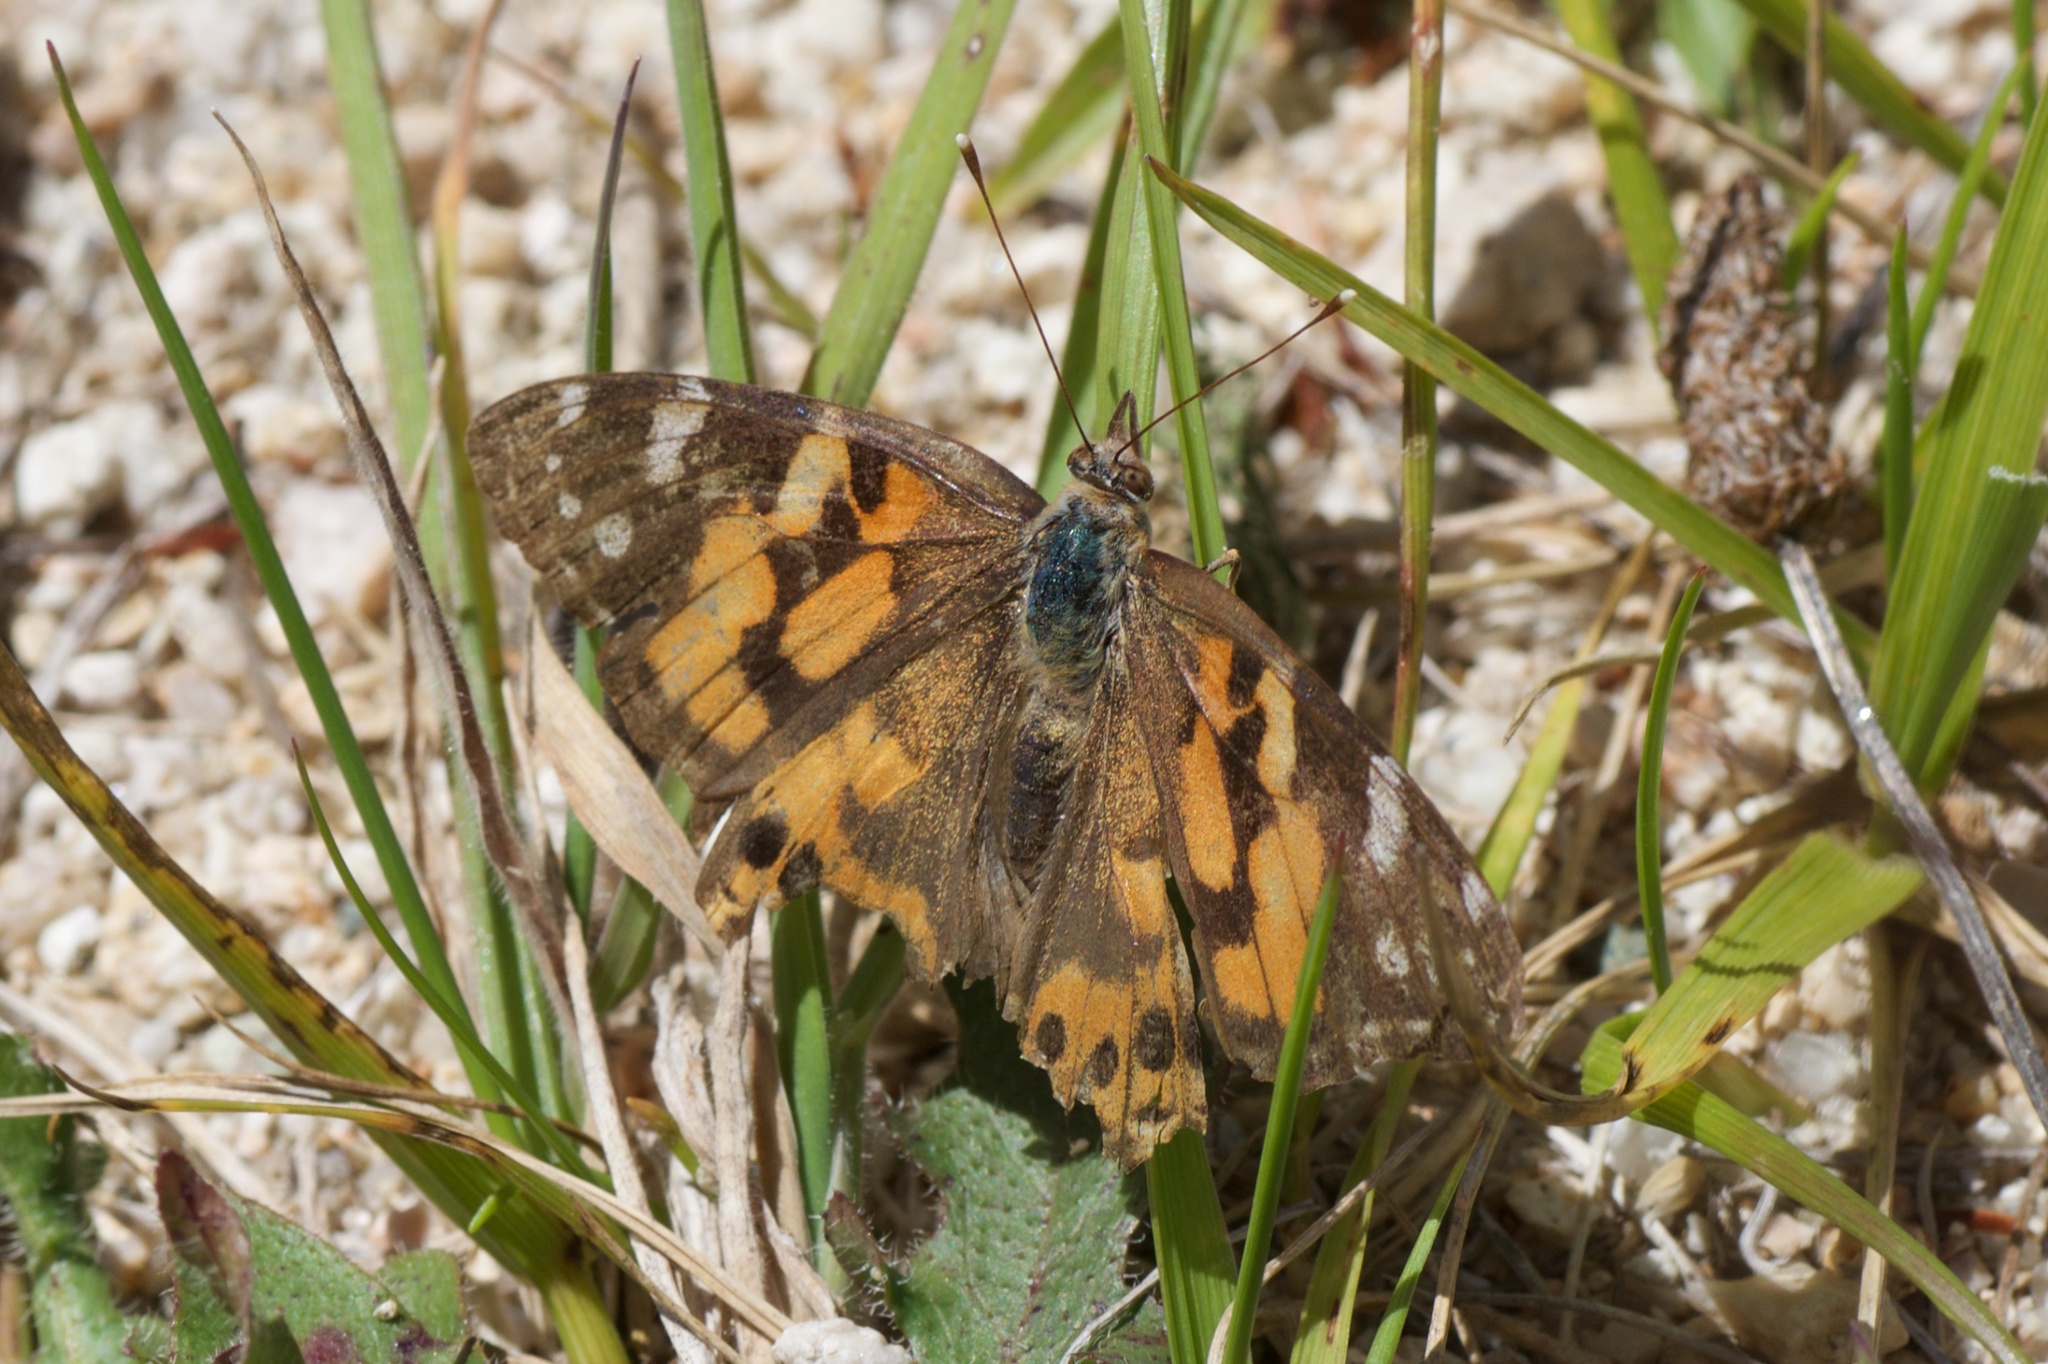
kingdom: Animalia
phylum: Arthropoda
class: Insecta
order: Lepidoptera
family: Nymphalidae
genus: Vanessa
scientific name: Vanessa kershawi
